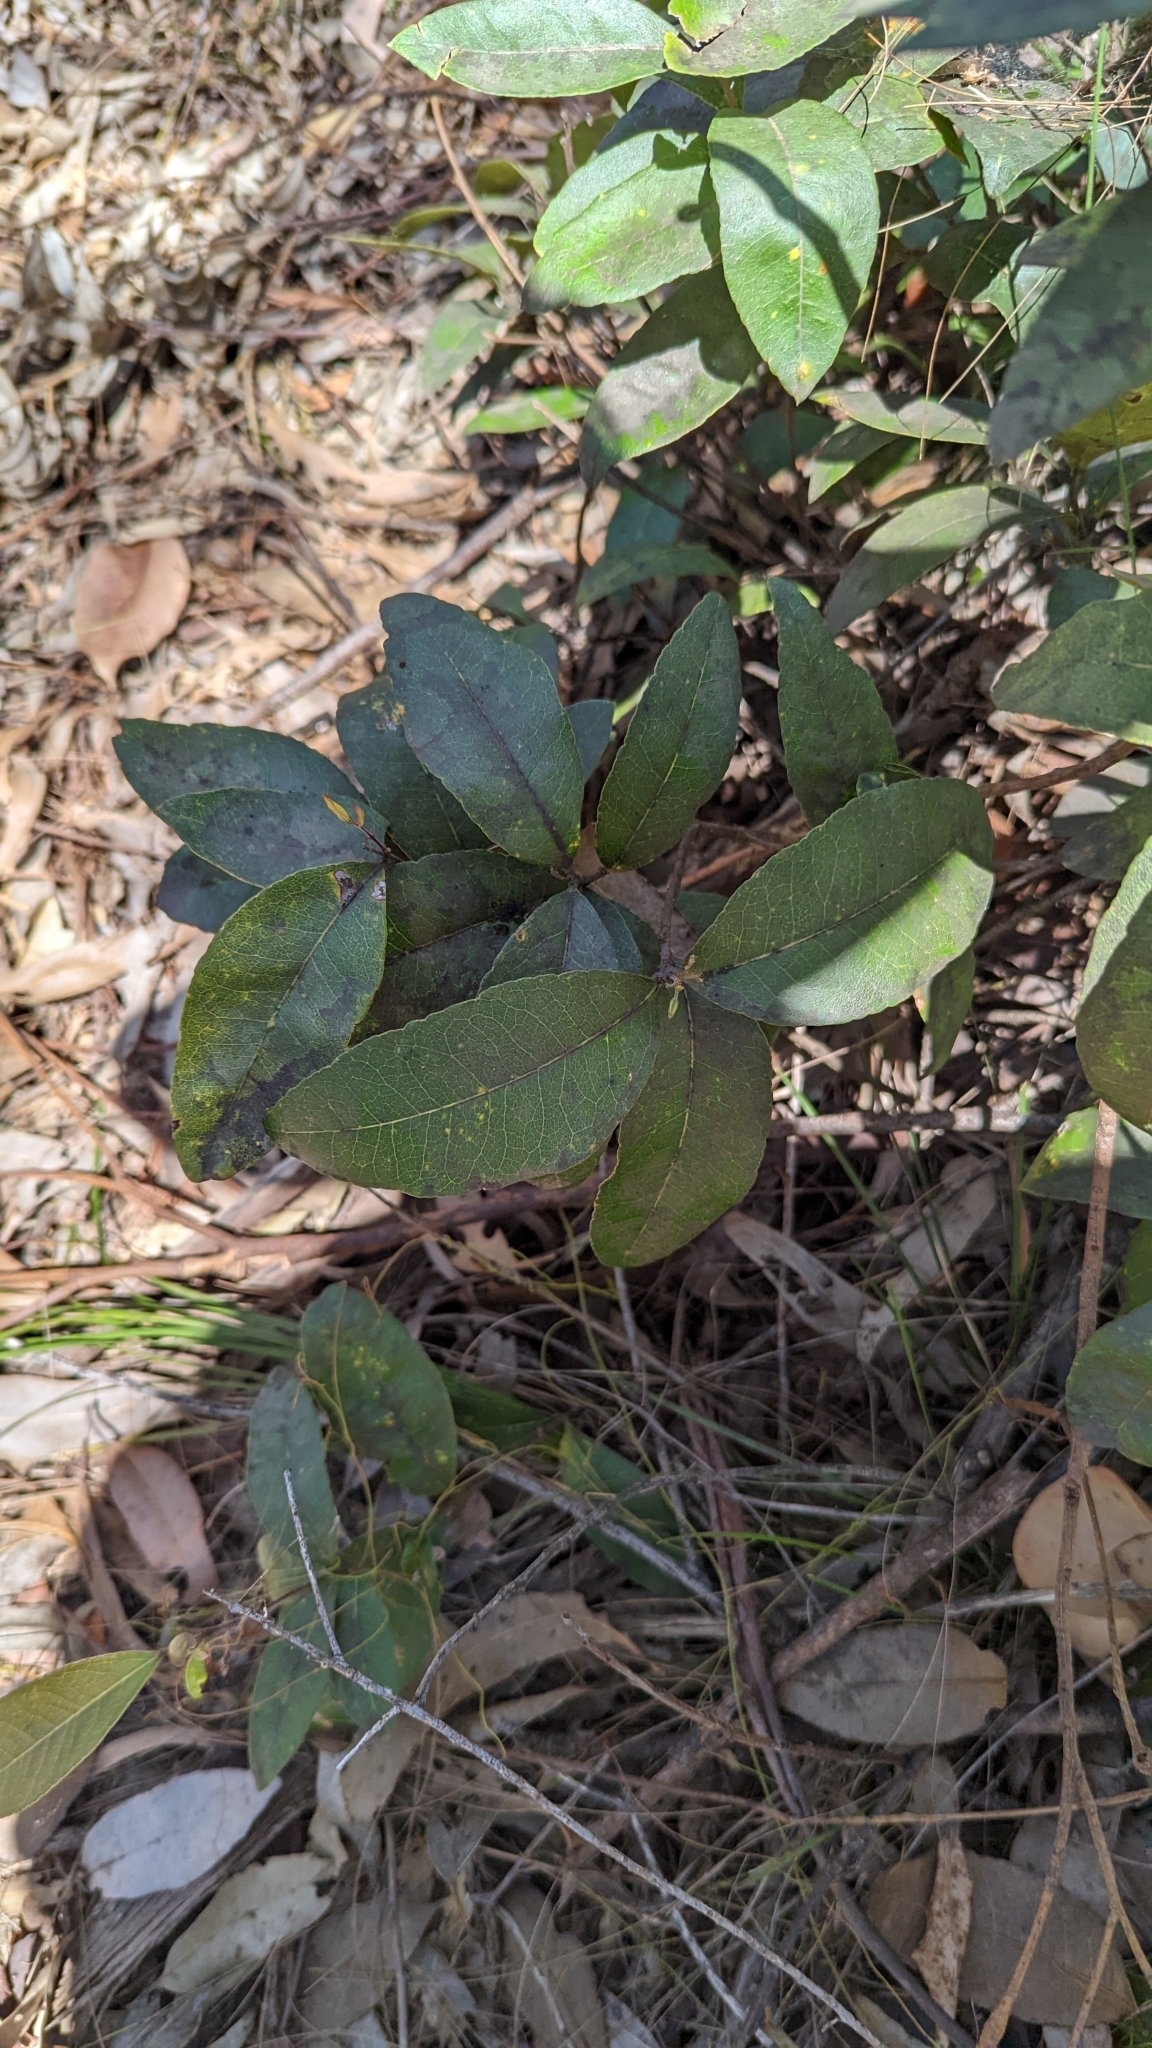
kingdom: Plantae
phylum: Tracheophyta
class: Magnoliopsida
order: Lamiales
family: Oleaceae
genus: Notelaea
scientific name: Notelaea ovata
